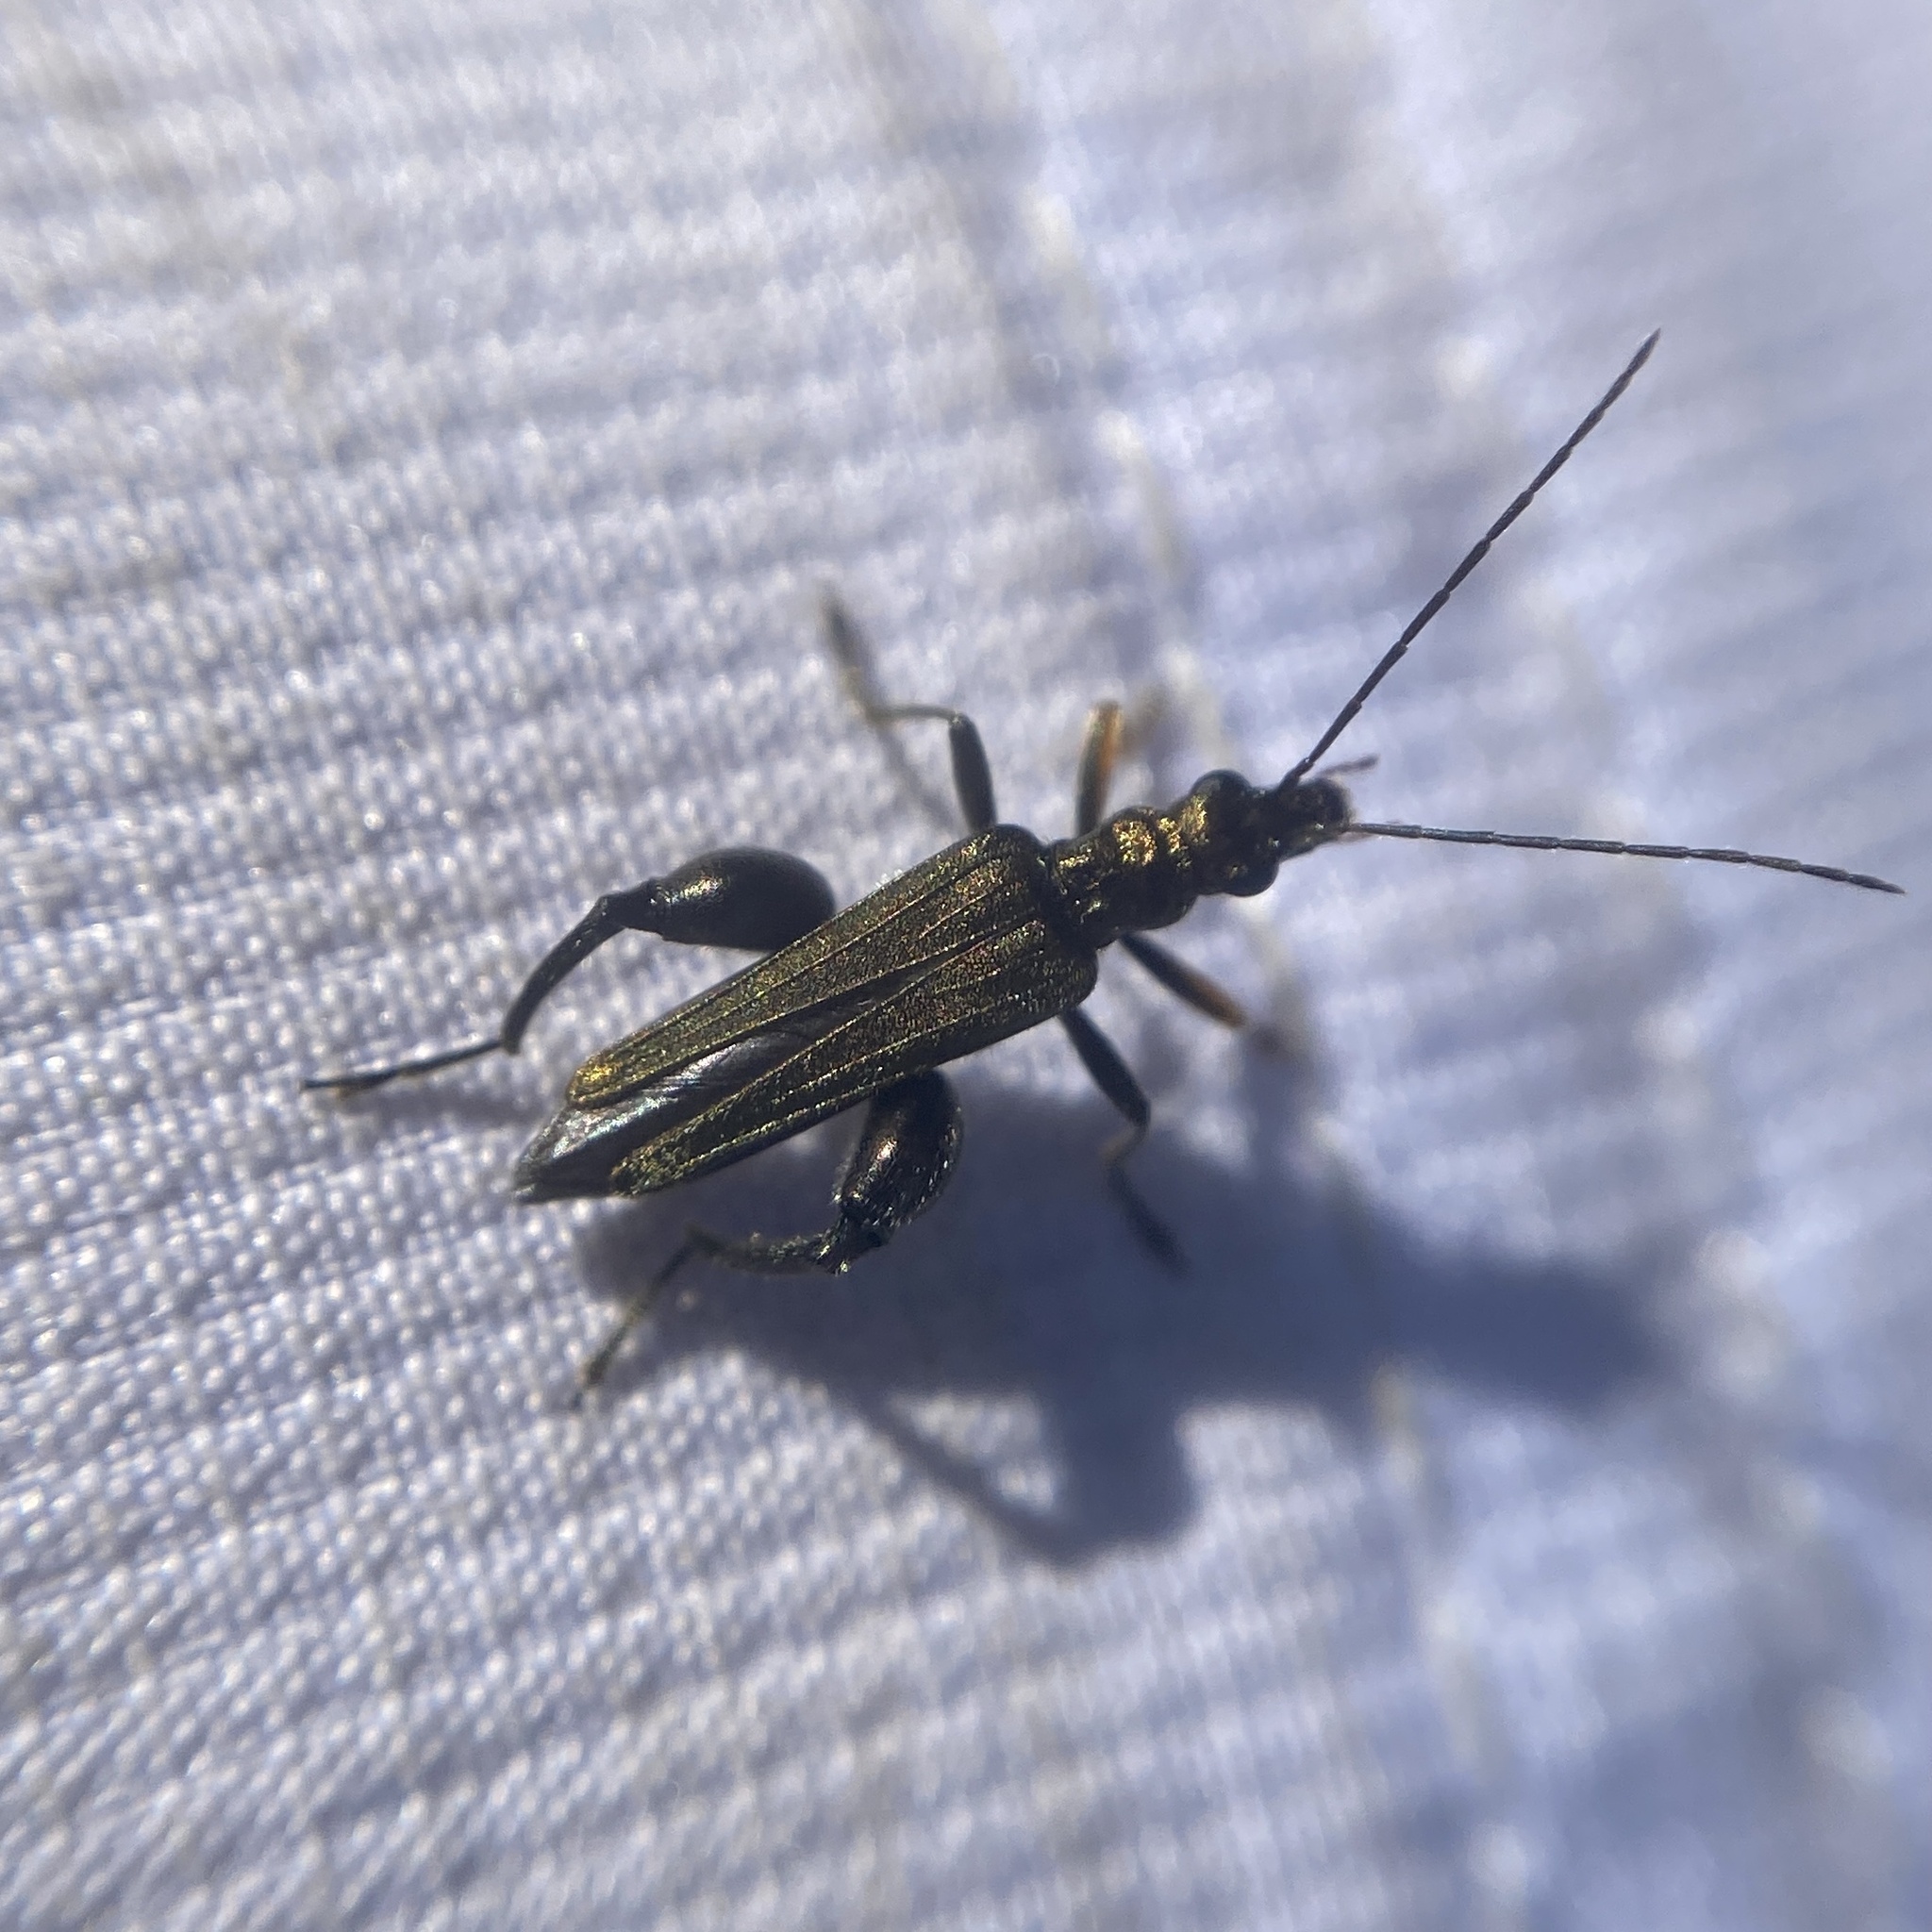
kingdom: Animalia
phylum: Arthropoda
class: Insecta
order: Coleoptera
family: Oedemeridae
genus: Oedemera
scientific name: Oedemera flavipes
